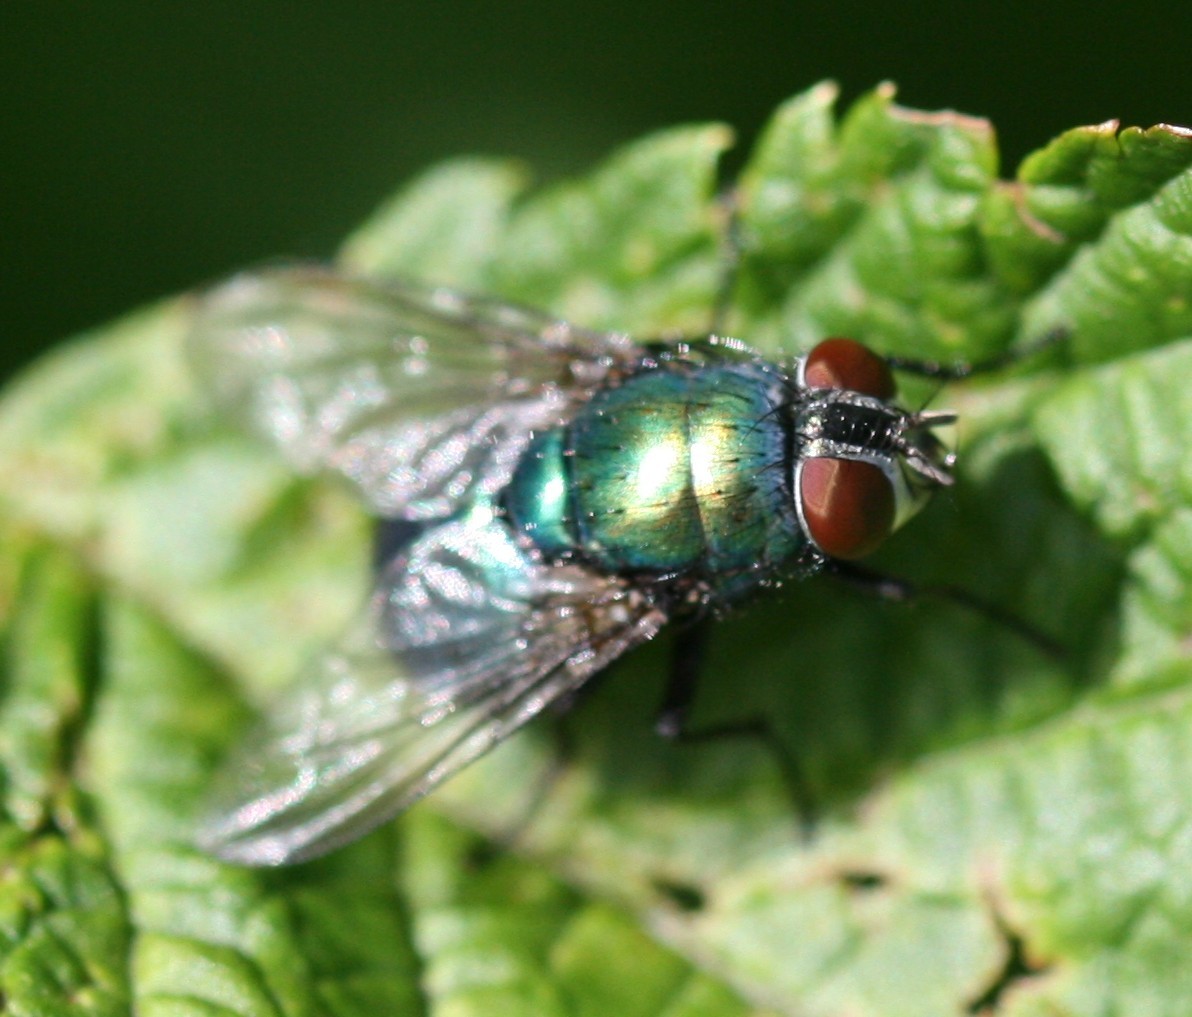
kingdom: Animalia
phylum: Arthropoda
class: Insecta
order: Diptera
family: Calliphoridae
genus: Lucilia
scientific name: Lucilia
